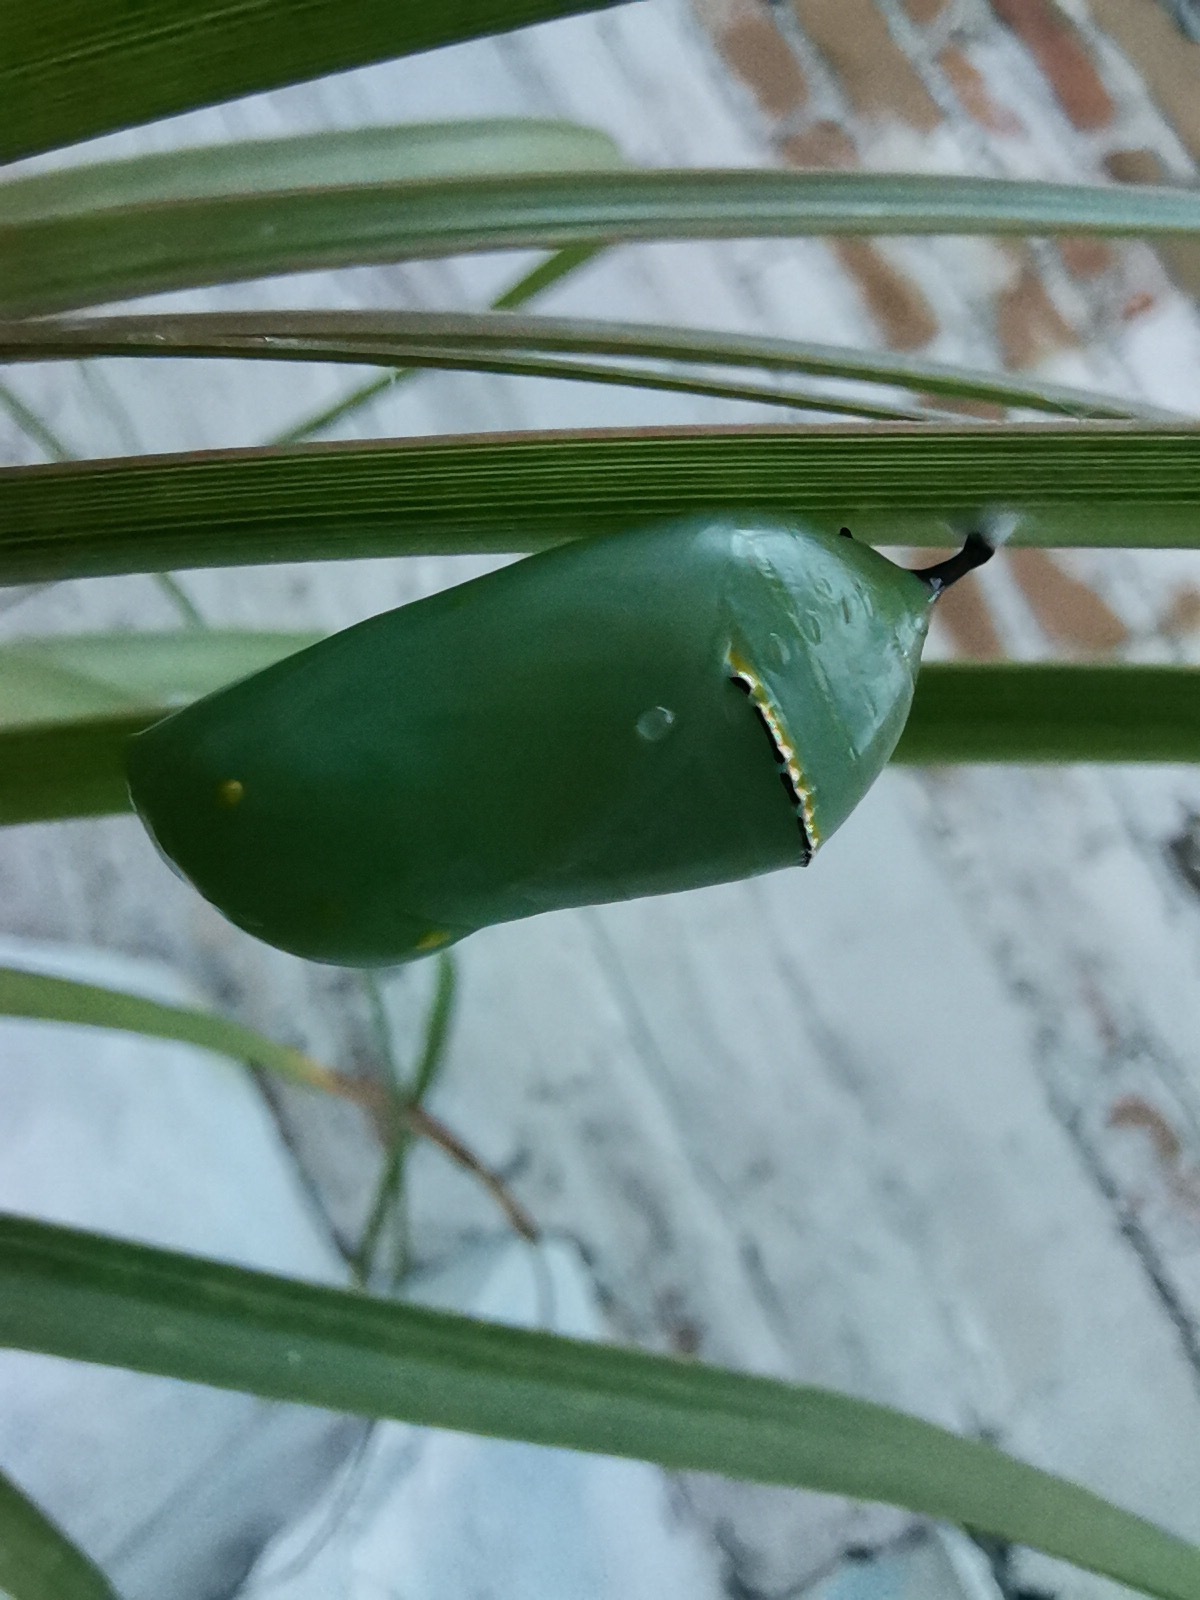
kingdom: Animalia
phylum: Arthropoda
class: Insecta
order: Lepidoptera
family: Nymphalidae
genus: Danaus
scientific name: Danaus plexippus
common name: Monarch
